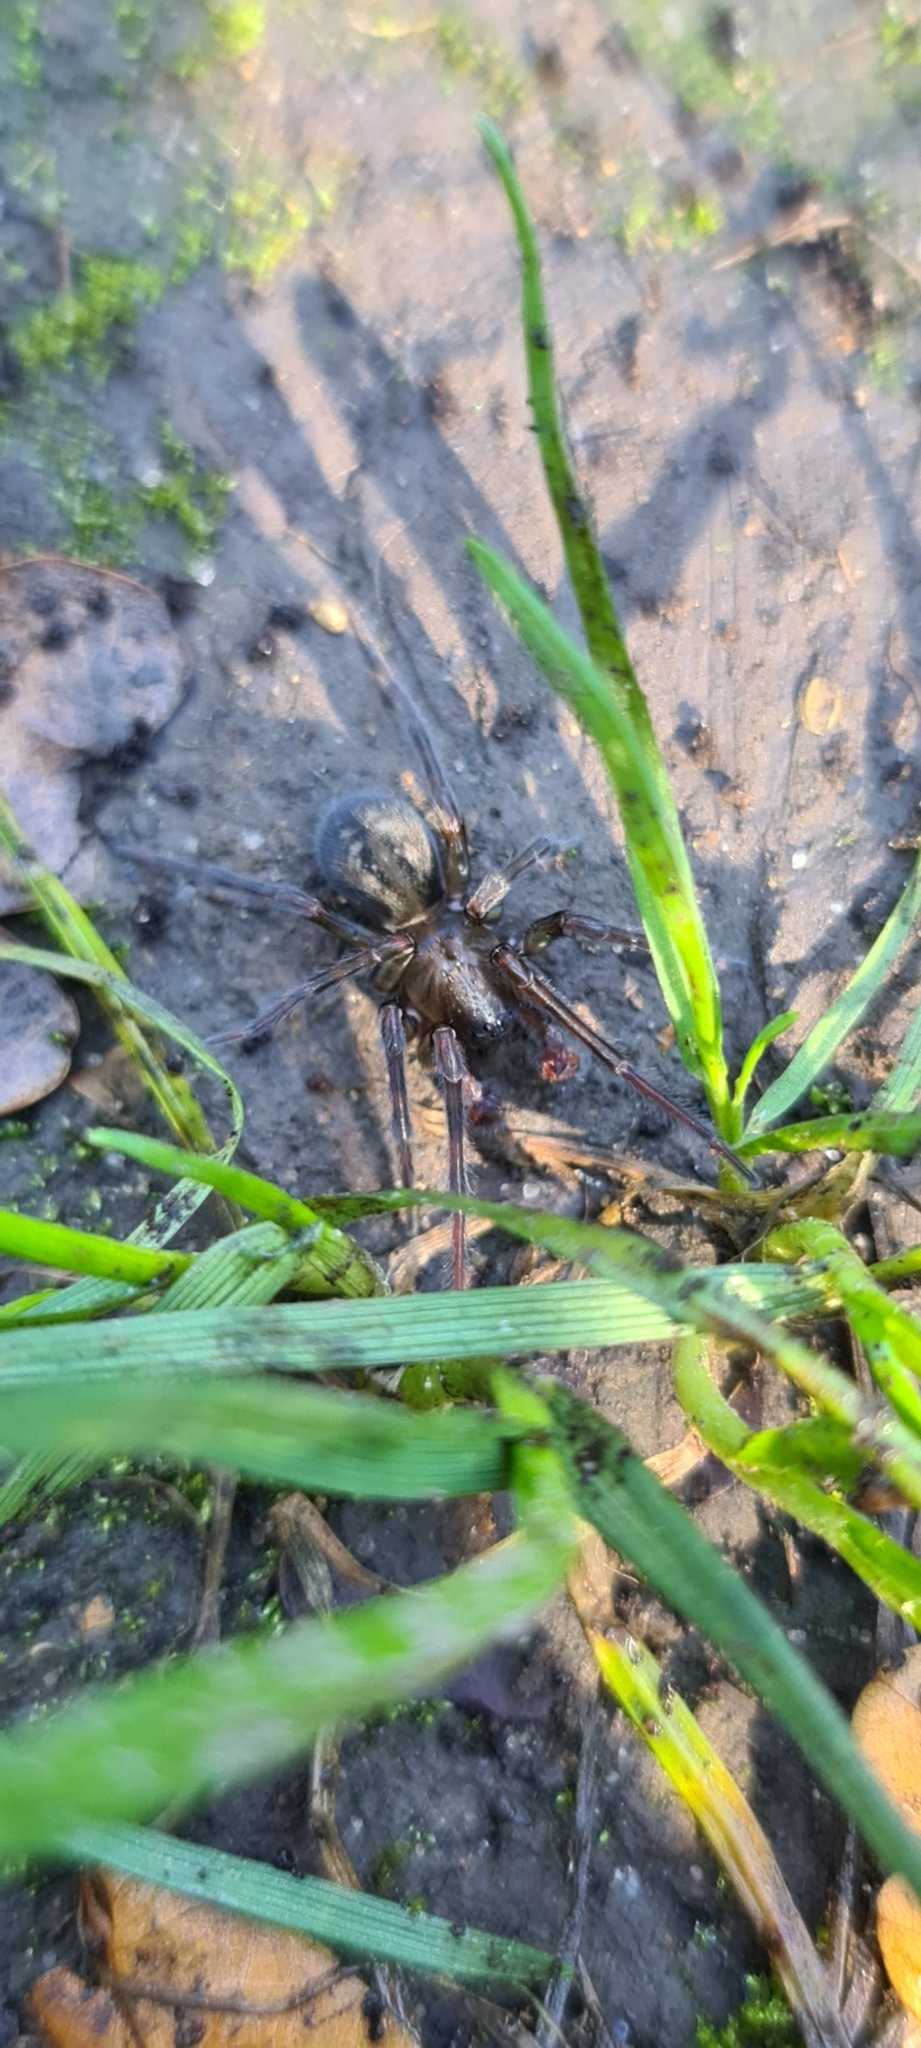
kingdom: Animalia
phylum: Arthropoda
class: Arachnida
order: Araneae
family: Amaurobiidae
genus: Amaurobius
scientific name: Amaurobius ferox
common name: Black laceweaver
